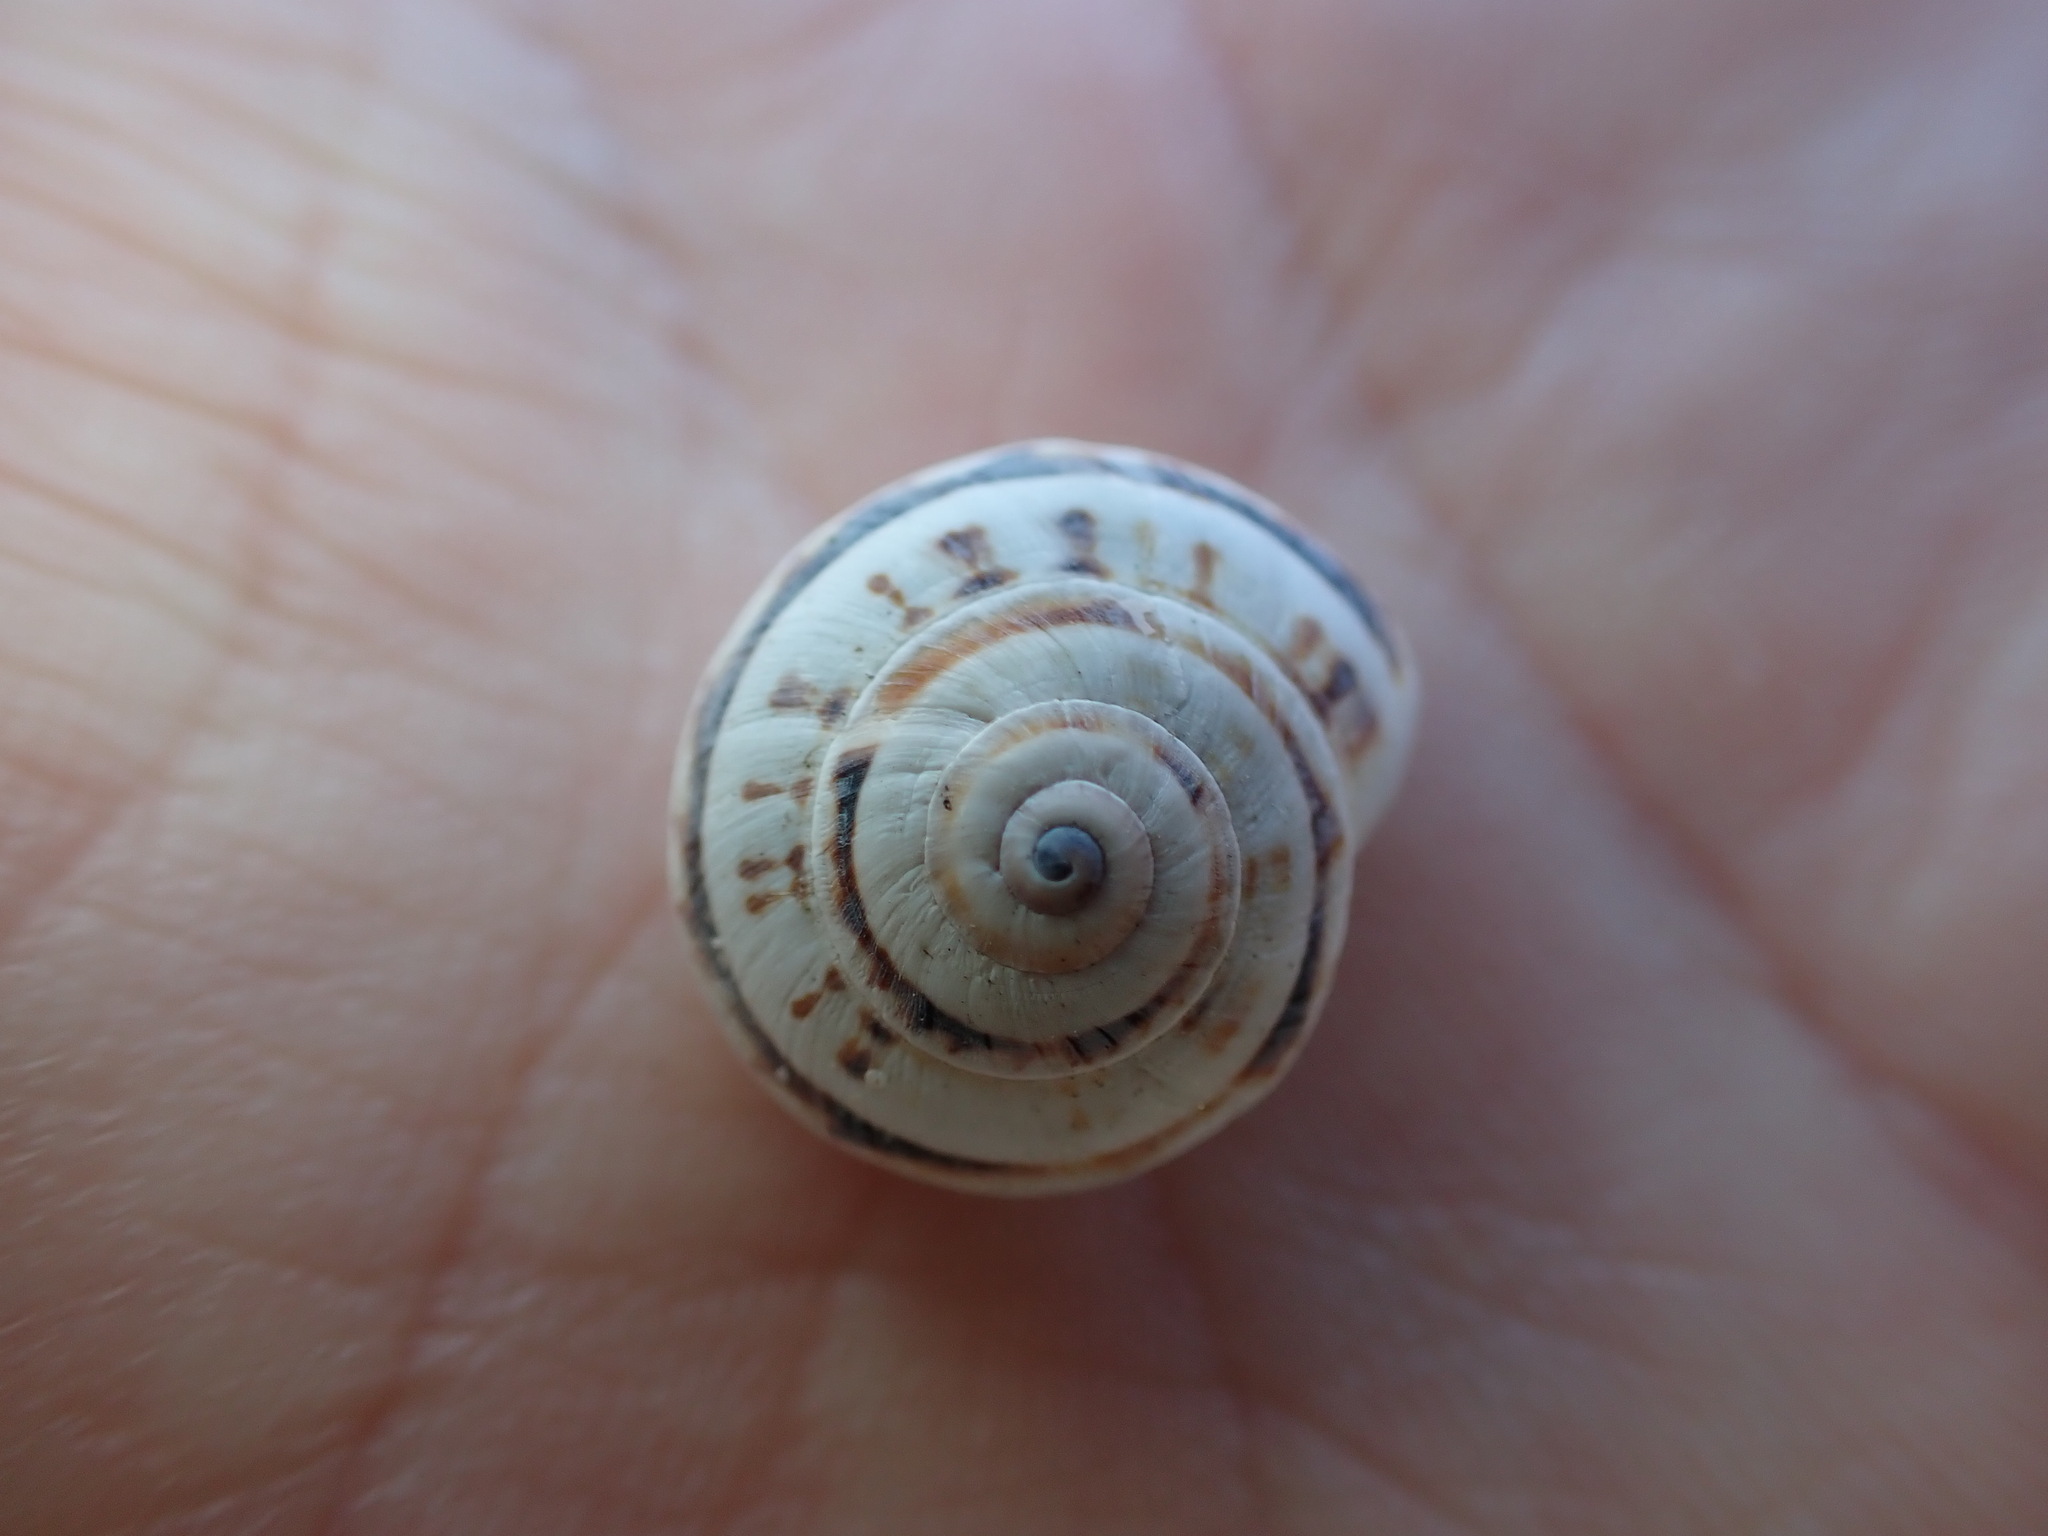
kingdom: Animalia
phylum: Mollusca
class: Gastropoda
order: Stylommatophora
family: Helicidae
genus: Theba
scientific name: Theba pisana
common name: White snail
